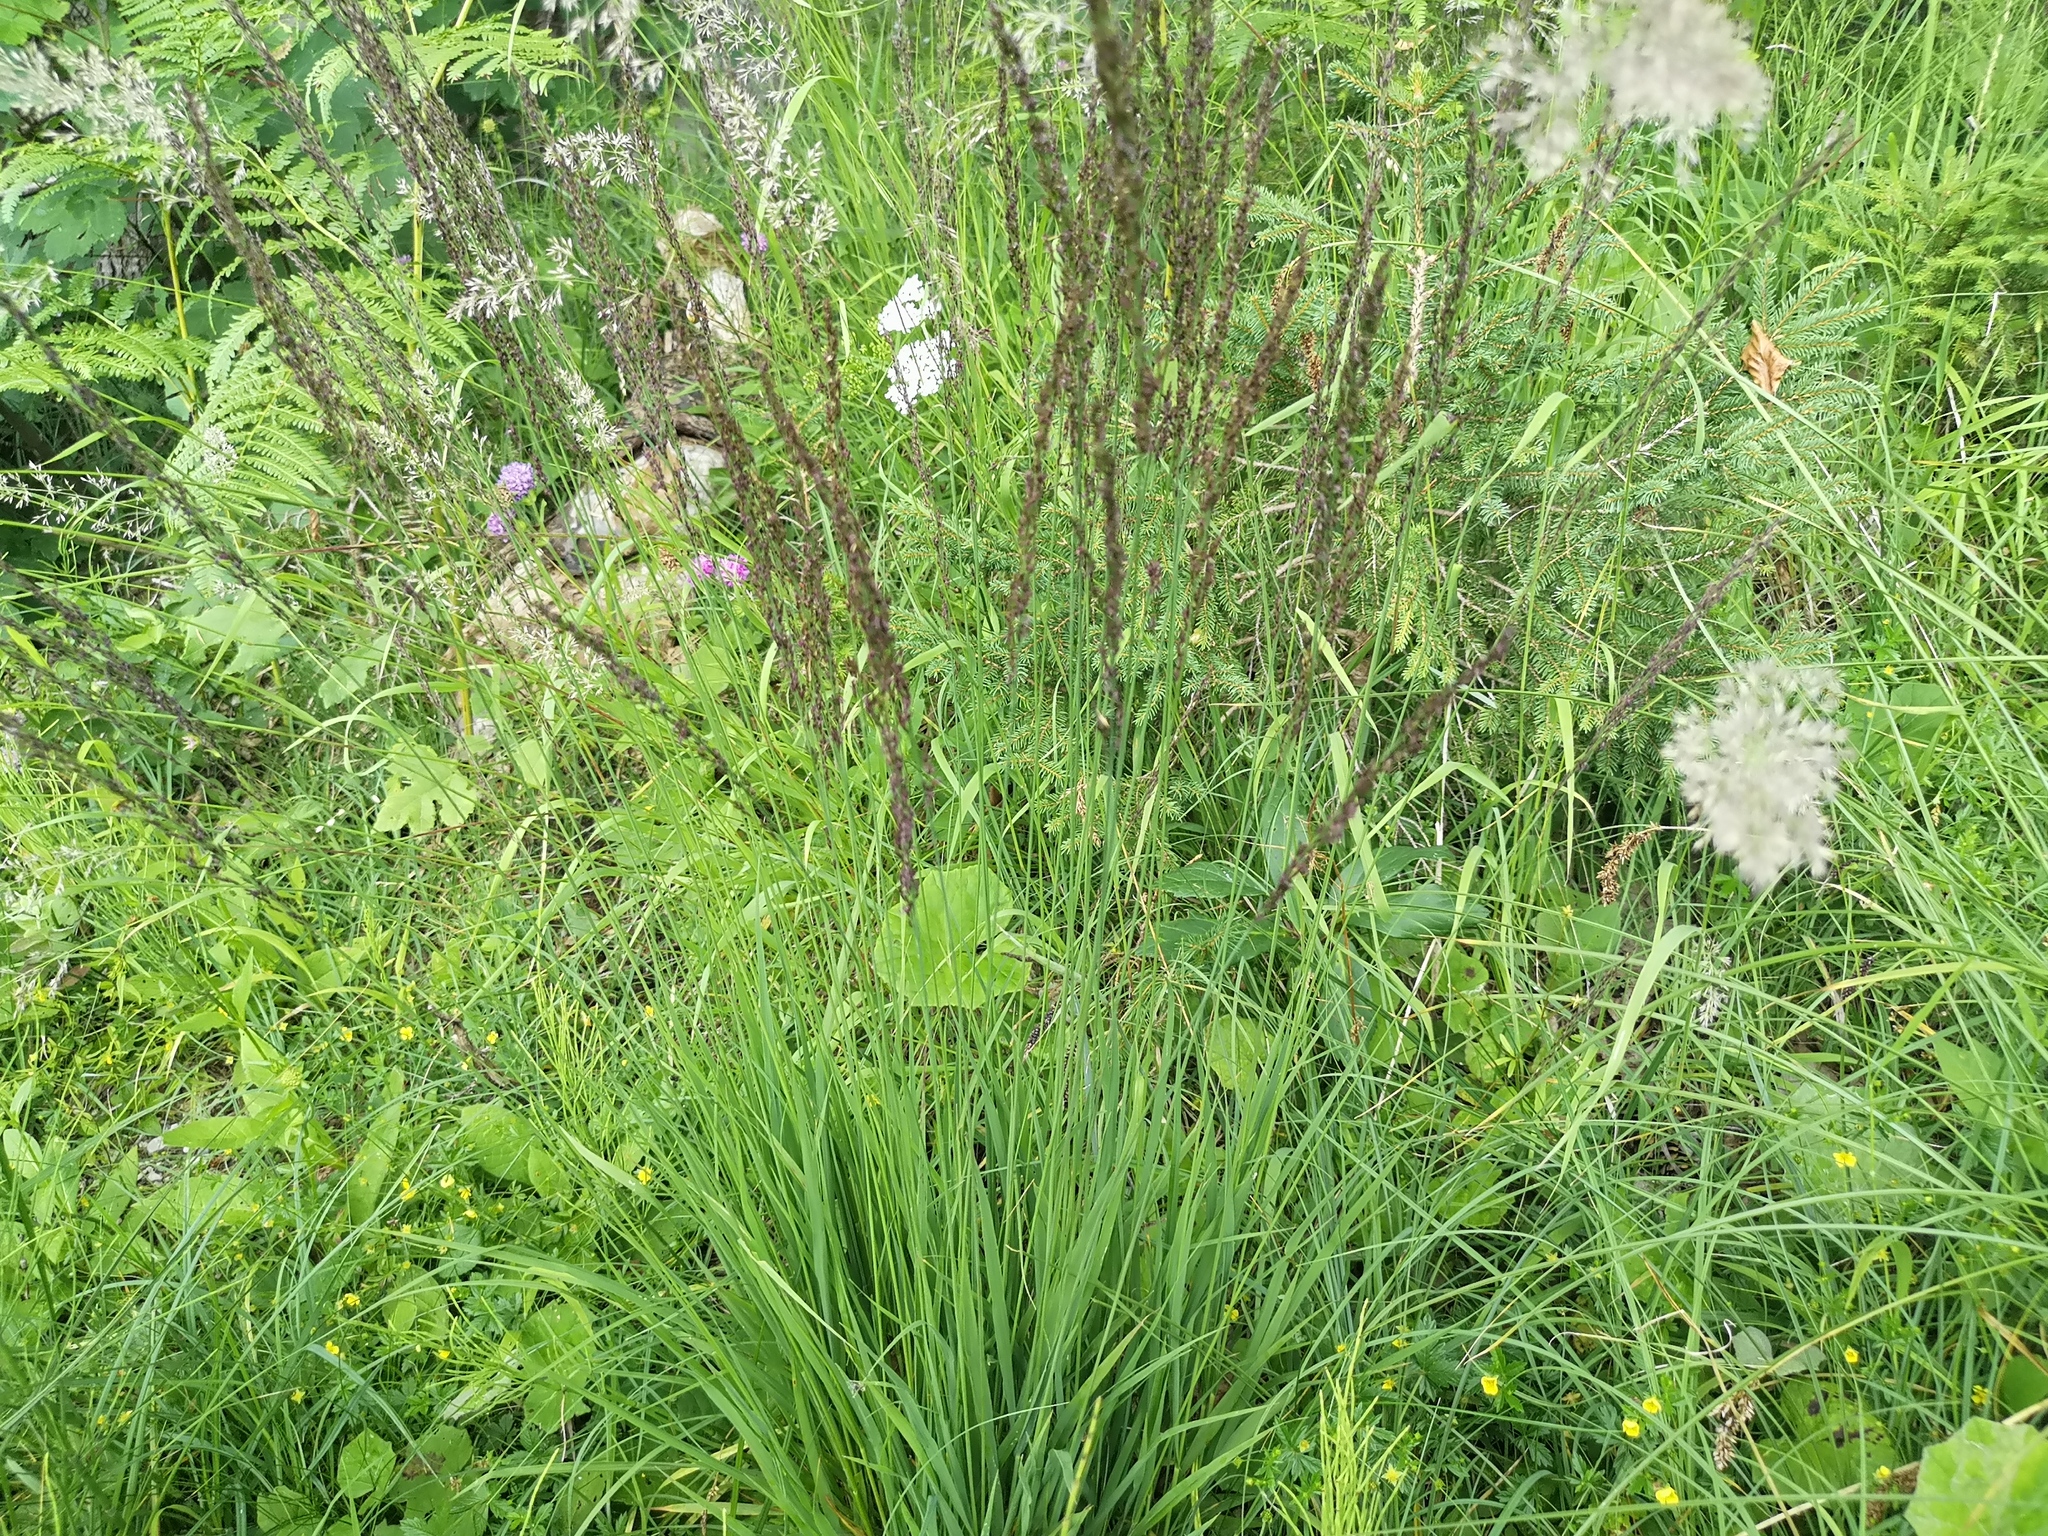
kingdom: Plantae
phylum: Tracheophyta
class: Liliopsida
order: Poales
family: Poaceae
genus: Molinia
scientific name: Molinia caerulea
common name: Purple moor-grass
